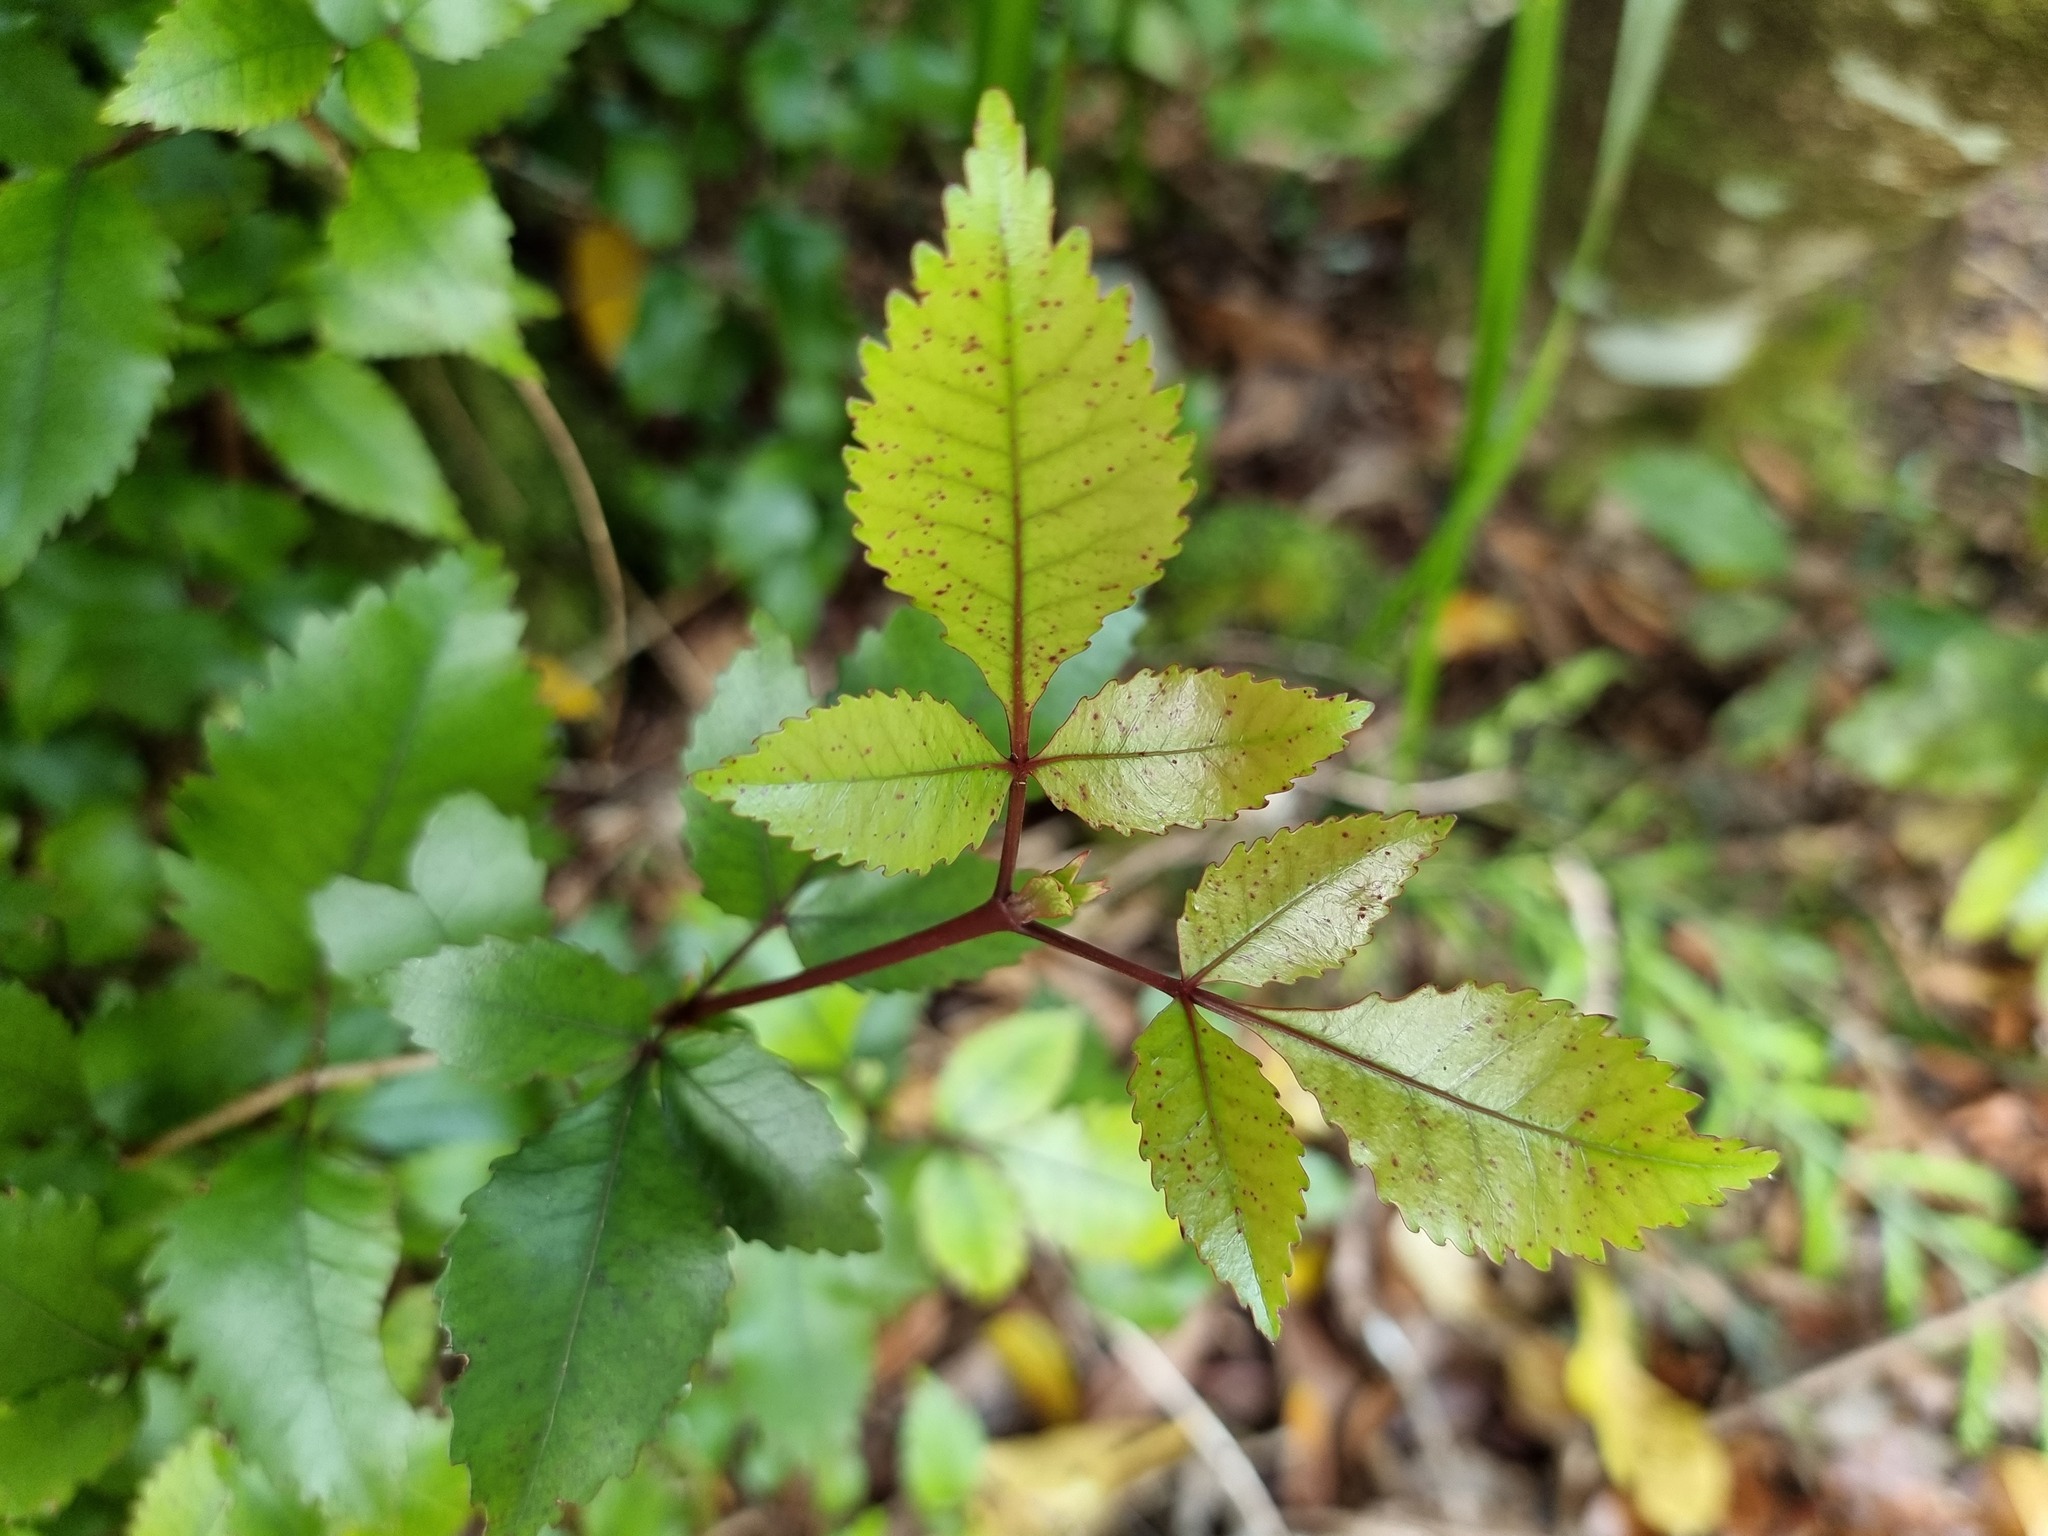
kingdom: Plantae
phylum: Tracheophyta
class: Magnoliopsida
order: Oxalidales
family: Cunoniaceae
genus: Pterophylla
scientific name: Pterophylla racemosa
